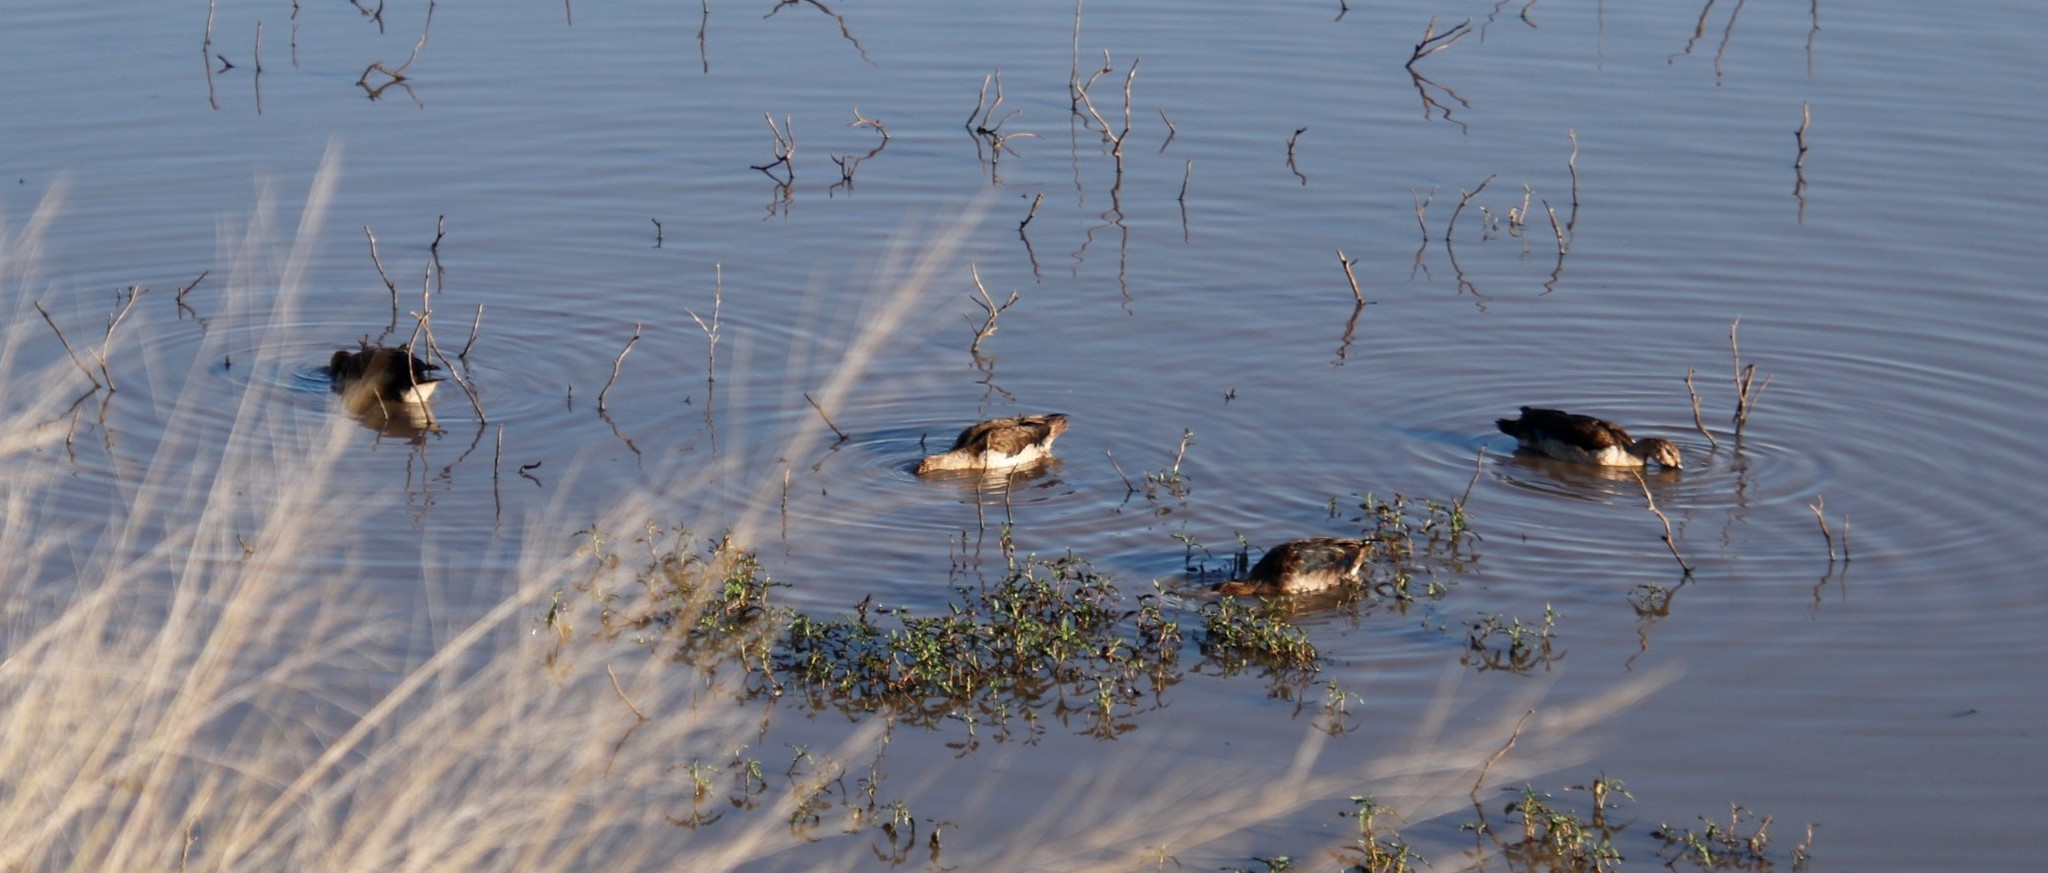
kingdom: Animalia
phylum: Chordata
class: Aves
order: Anseriformes
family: Anatidae
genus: Sarkidiornis
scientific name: Sarkidiornis melanotos
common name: Comb duck
